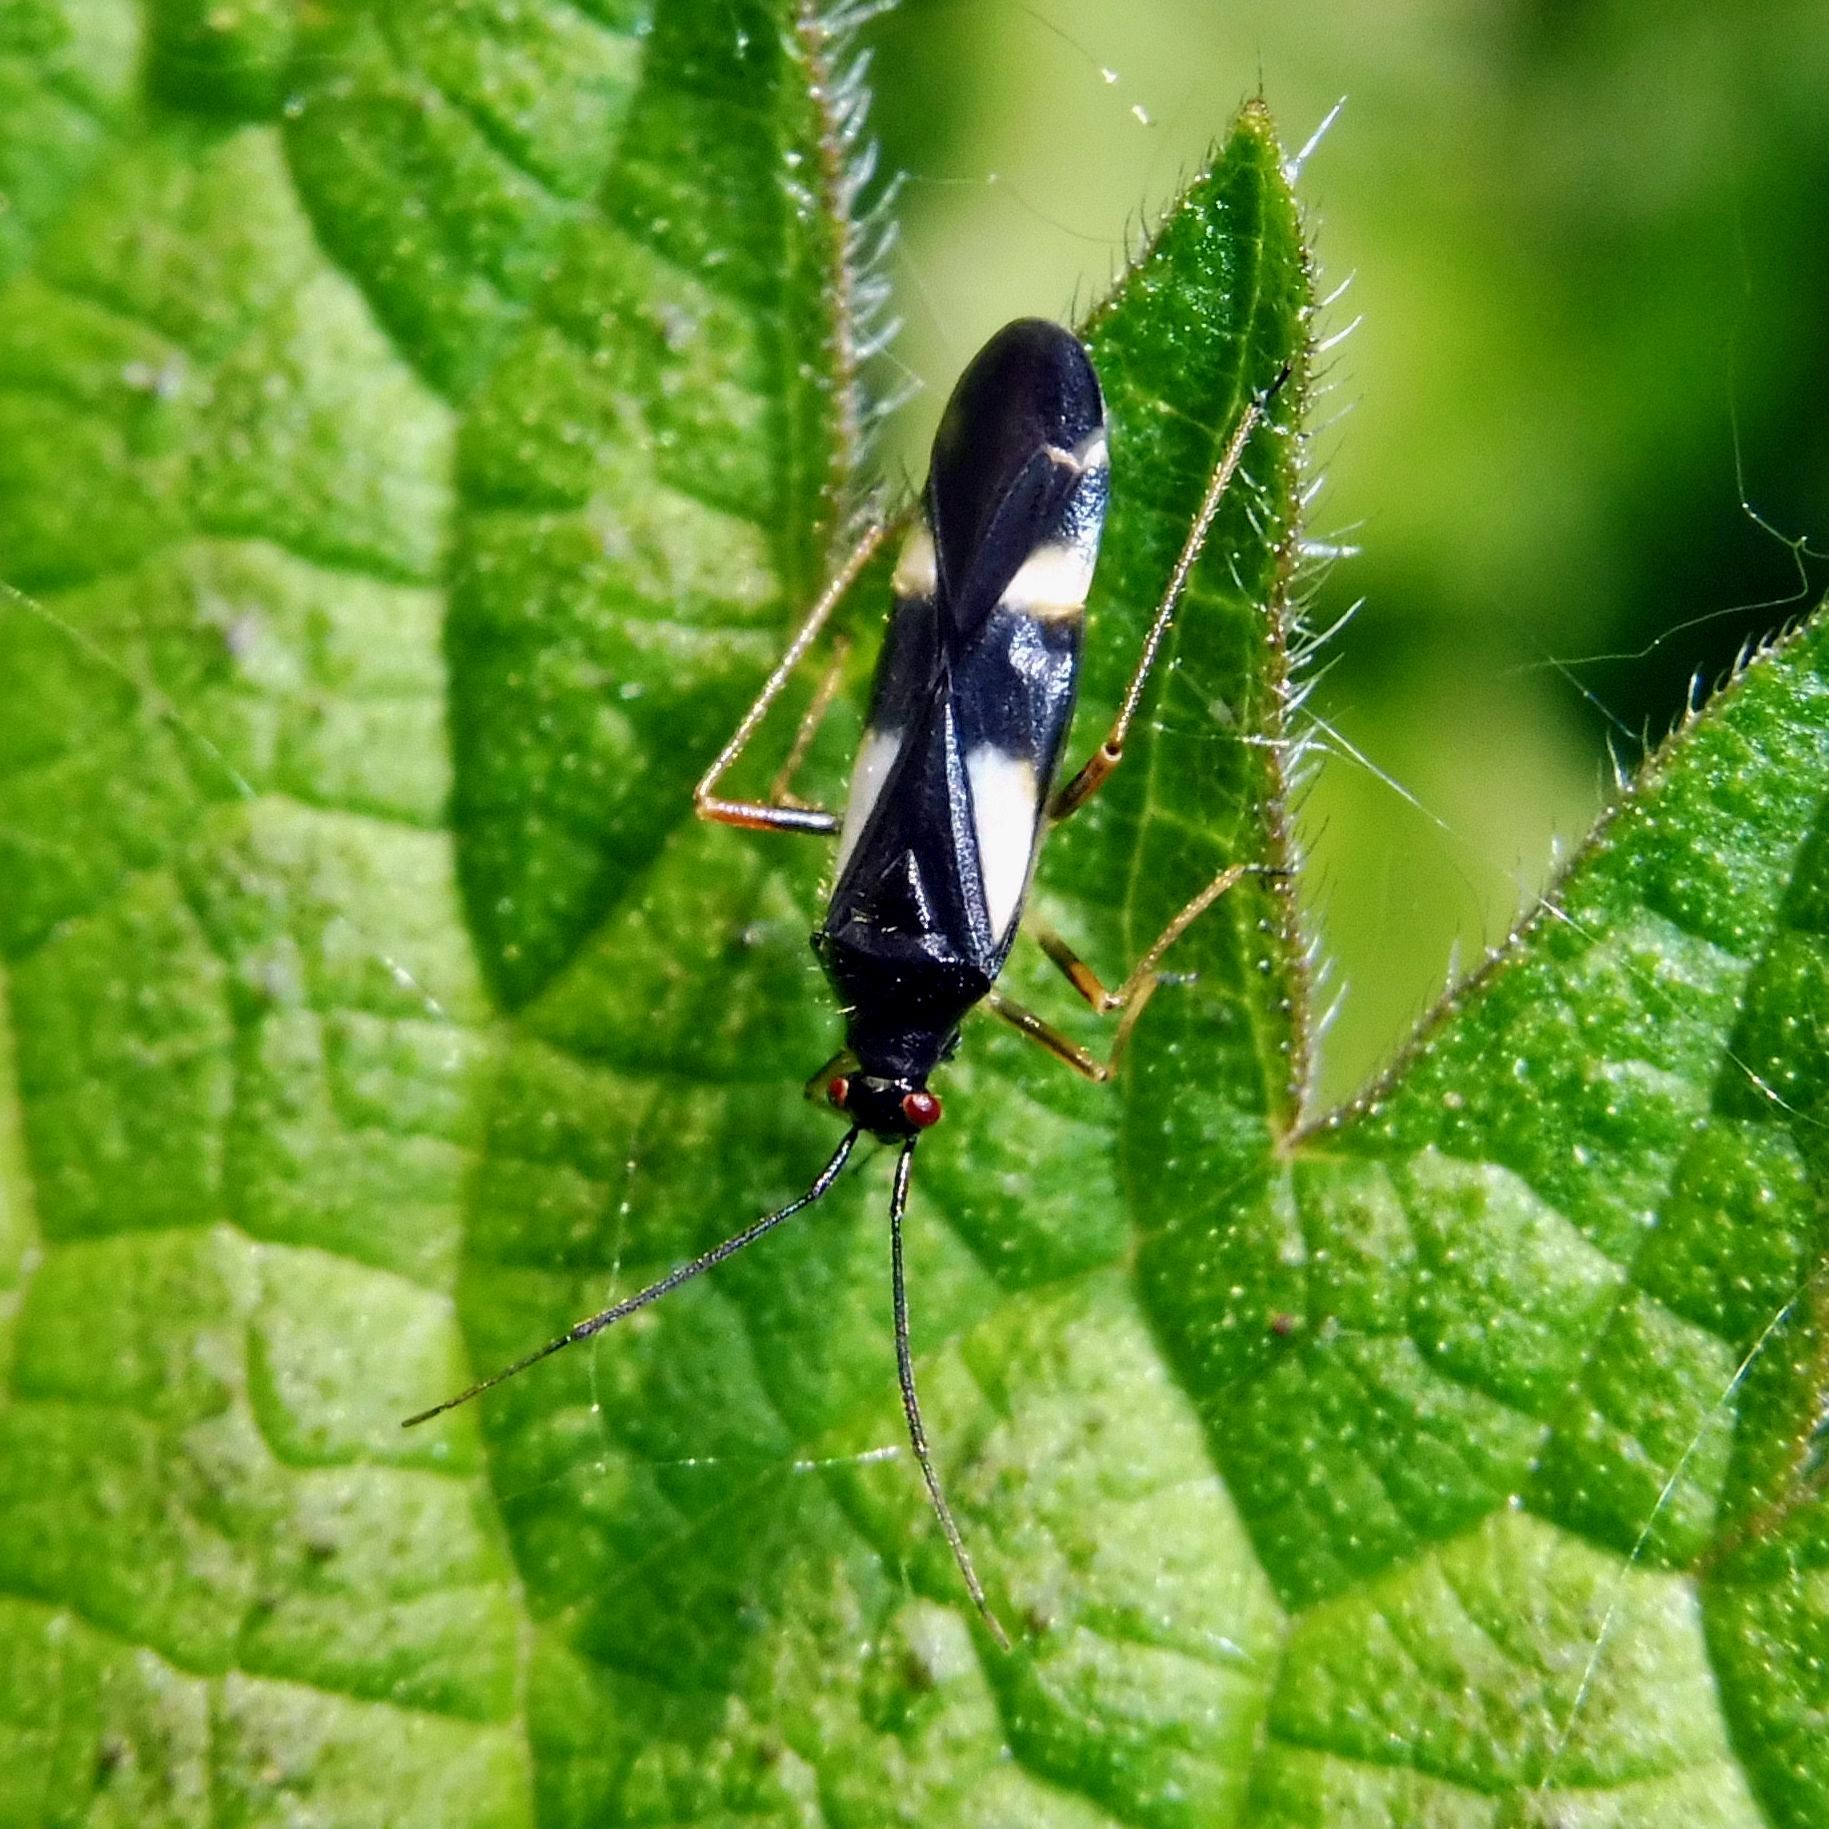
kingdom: Animalia
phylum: Arthropoda
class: Insecta
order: Hemiptera
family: Miridae
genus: Dryophilocoris
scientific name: Dryophilocoris flavoquadrimaculatus
